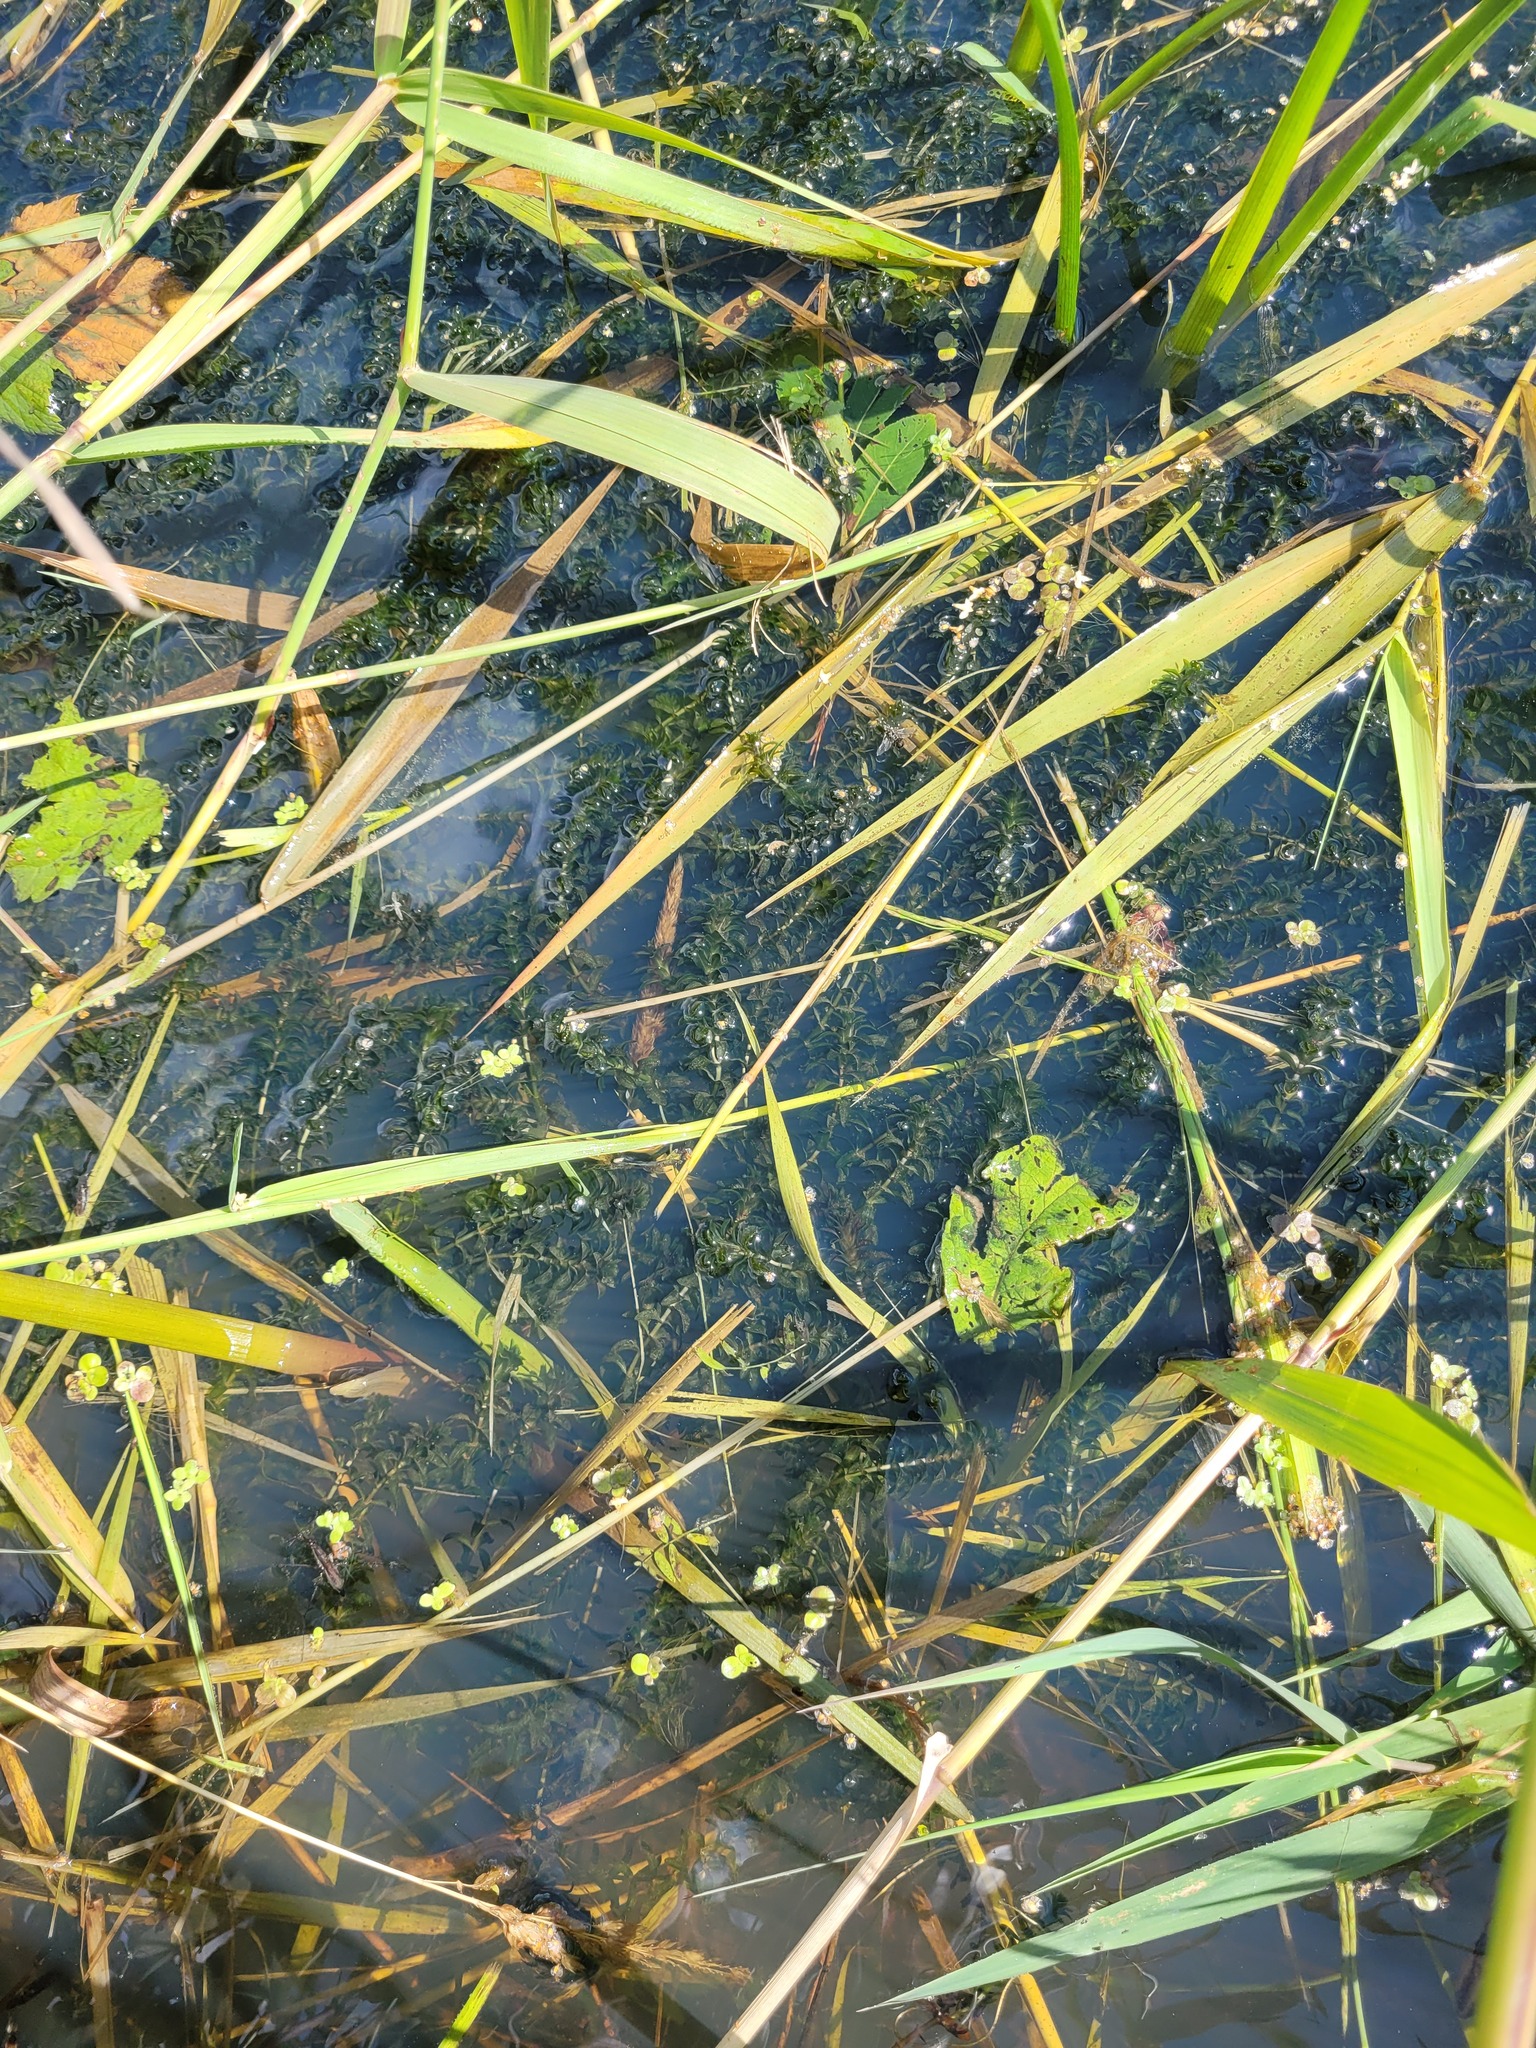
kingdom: Plantae
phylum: Tracheophyta
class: Liliopsida
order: Alismatales
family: Hydrocharitaceae
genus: Elodea
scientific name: Elodea canadensis
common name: Canadian waterweed
